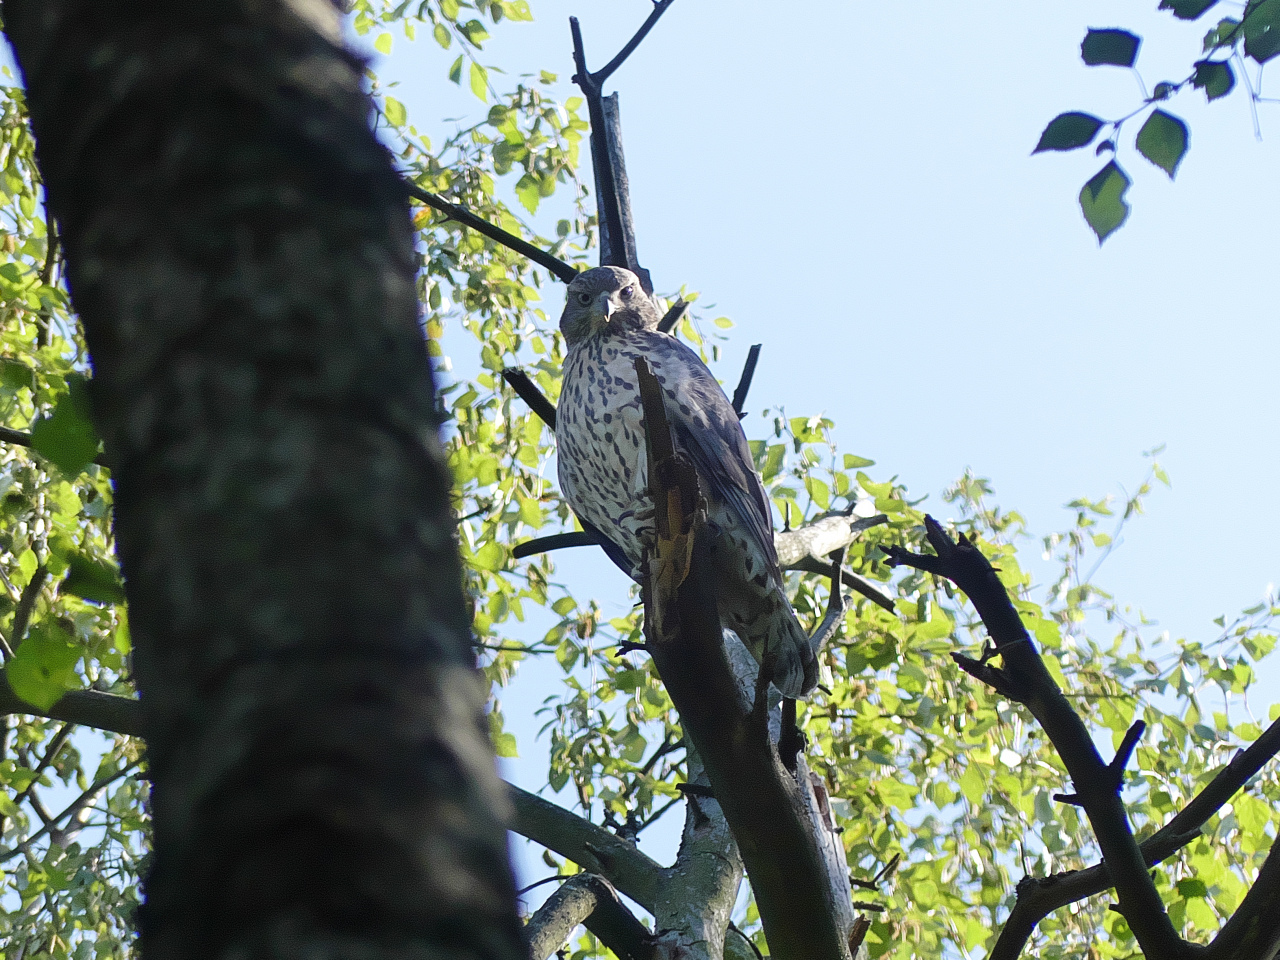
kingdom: Animalia
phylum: Chordata
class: Aves
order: Accipitriformes
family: Accipitridae
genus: Accipiter
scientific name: Accipiter gentilis
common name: Northern goshawk
